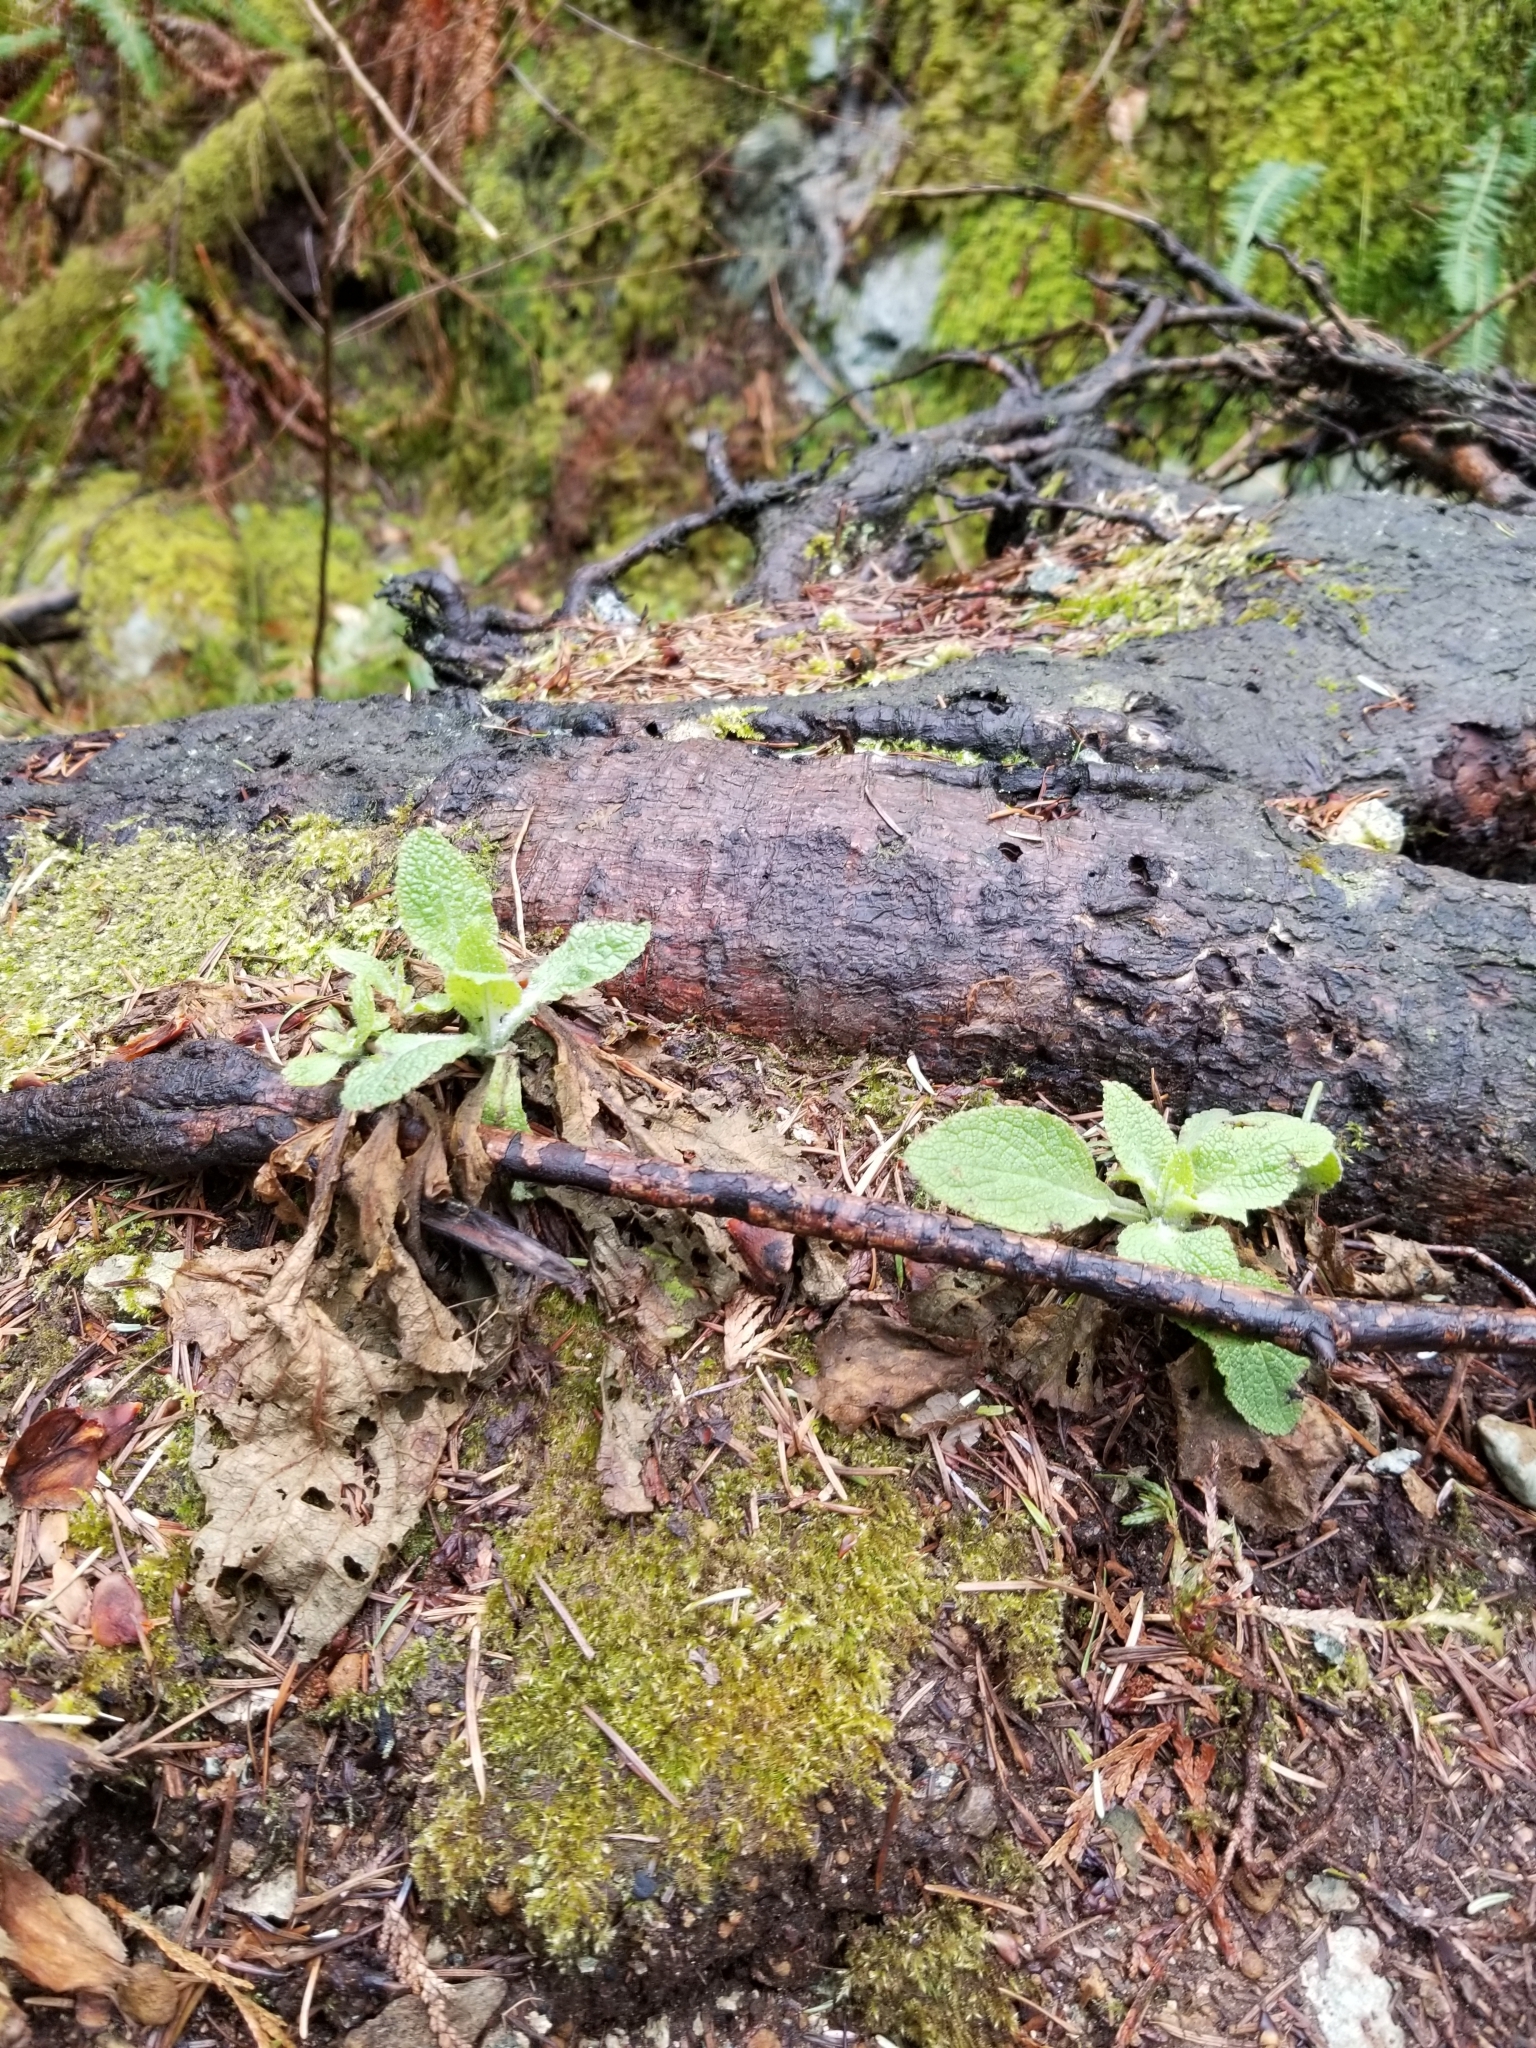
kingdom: Plantae
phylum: Tracheophyta
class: Magnoliopsida
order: Lamiales
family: Plantaginaceae
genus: Digitalis
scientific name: Digitalis purpurea
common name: Foxglove
